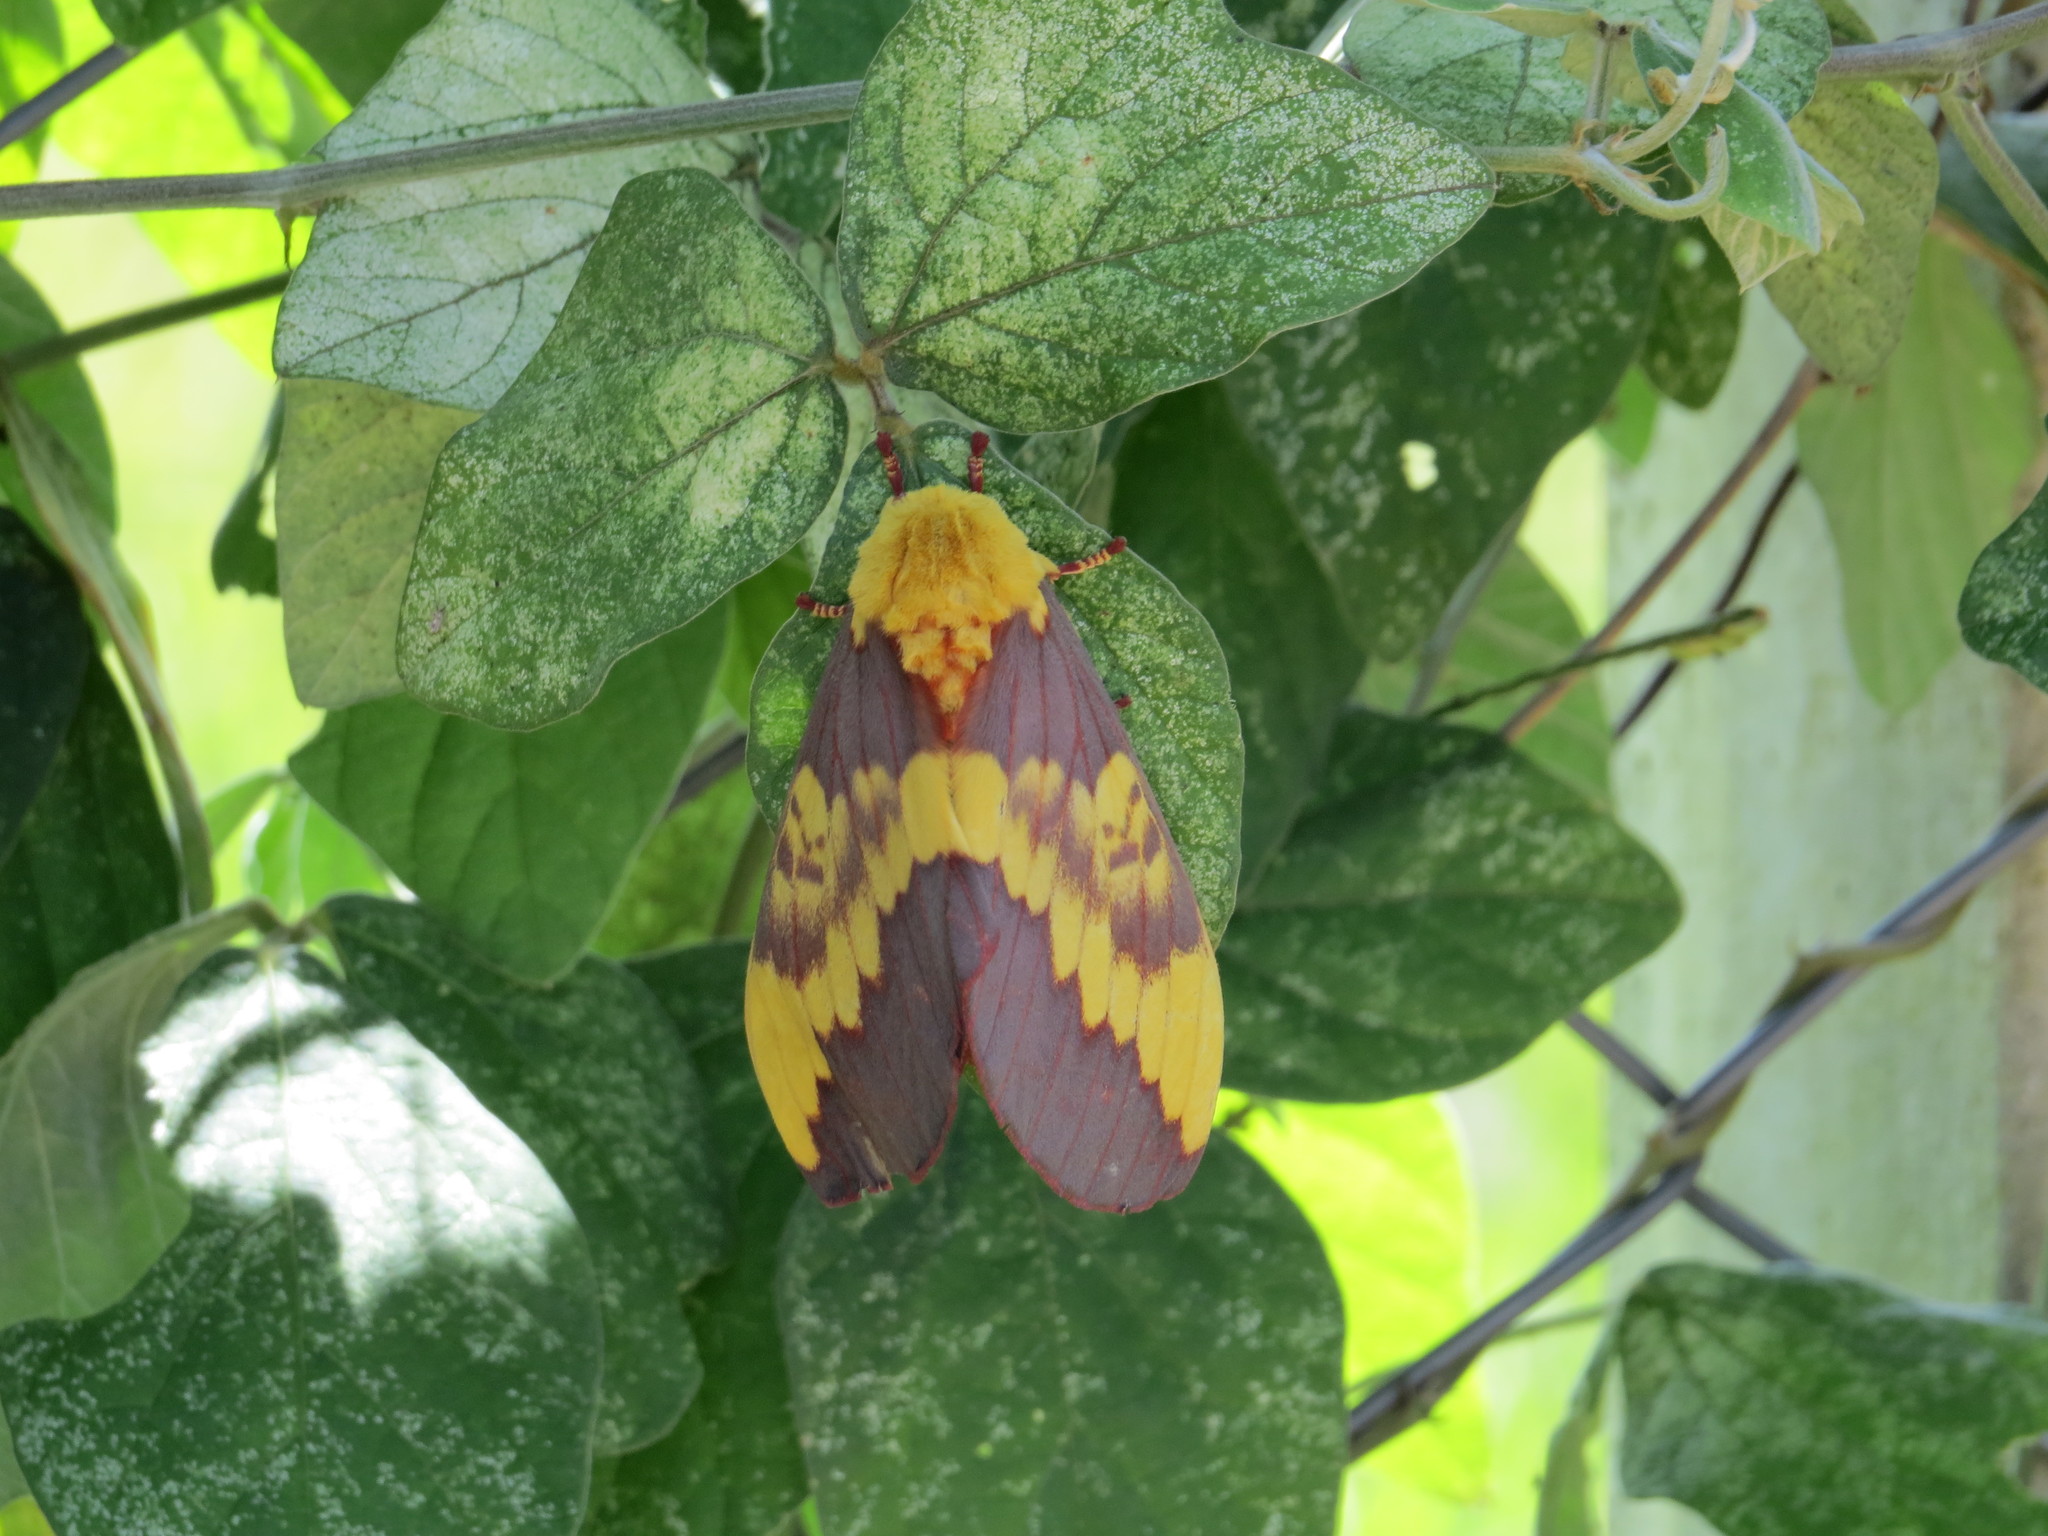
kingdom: Animalia
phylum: Arthropoda
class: Insecta
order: Lepidoptera
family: Saturniidae
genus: Citheronia
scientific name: Citheronia laocoon
